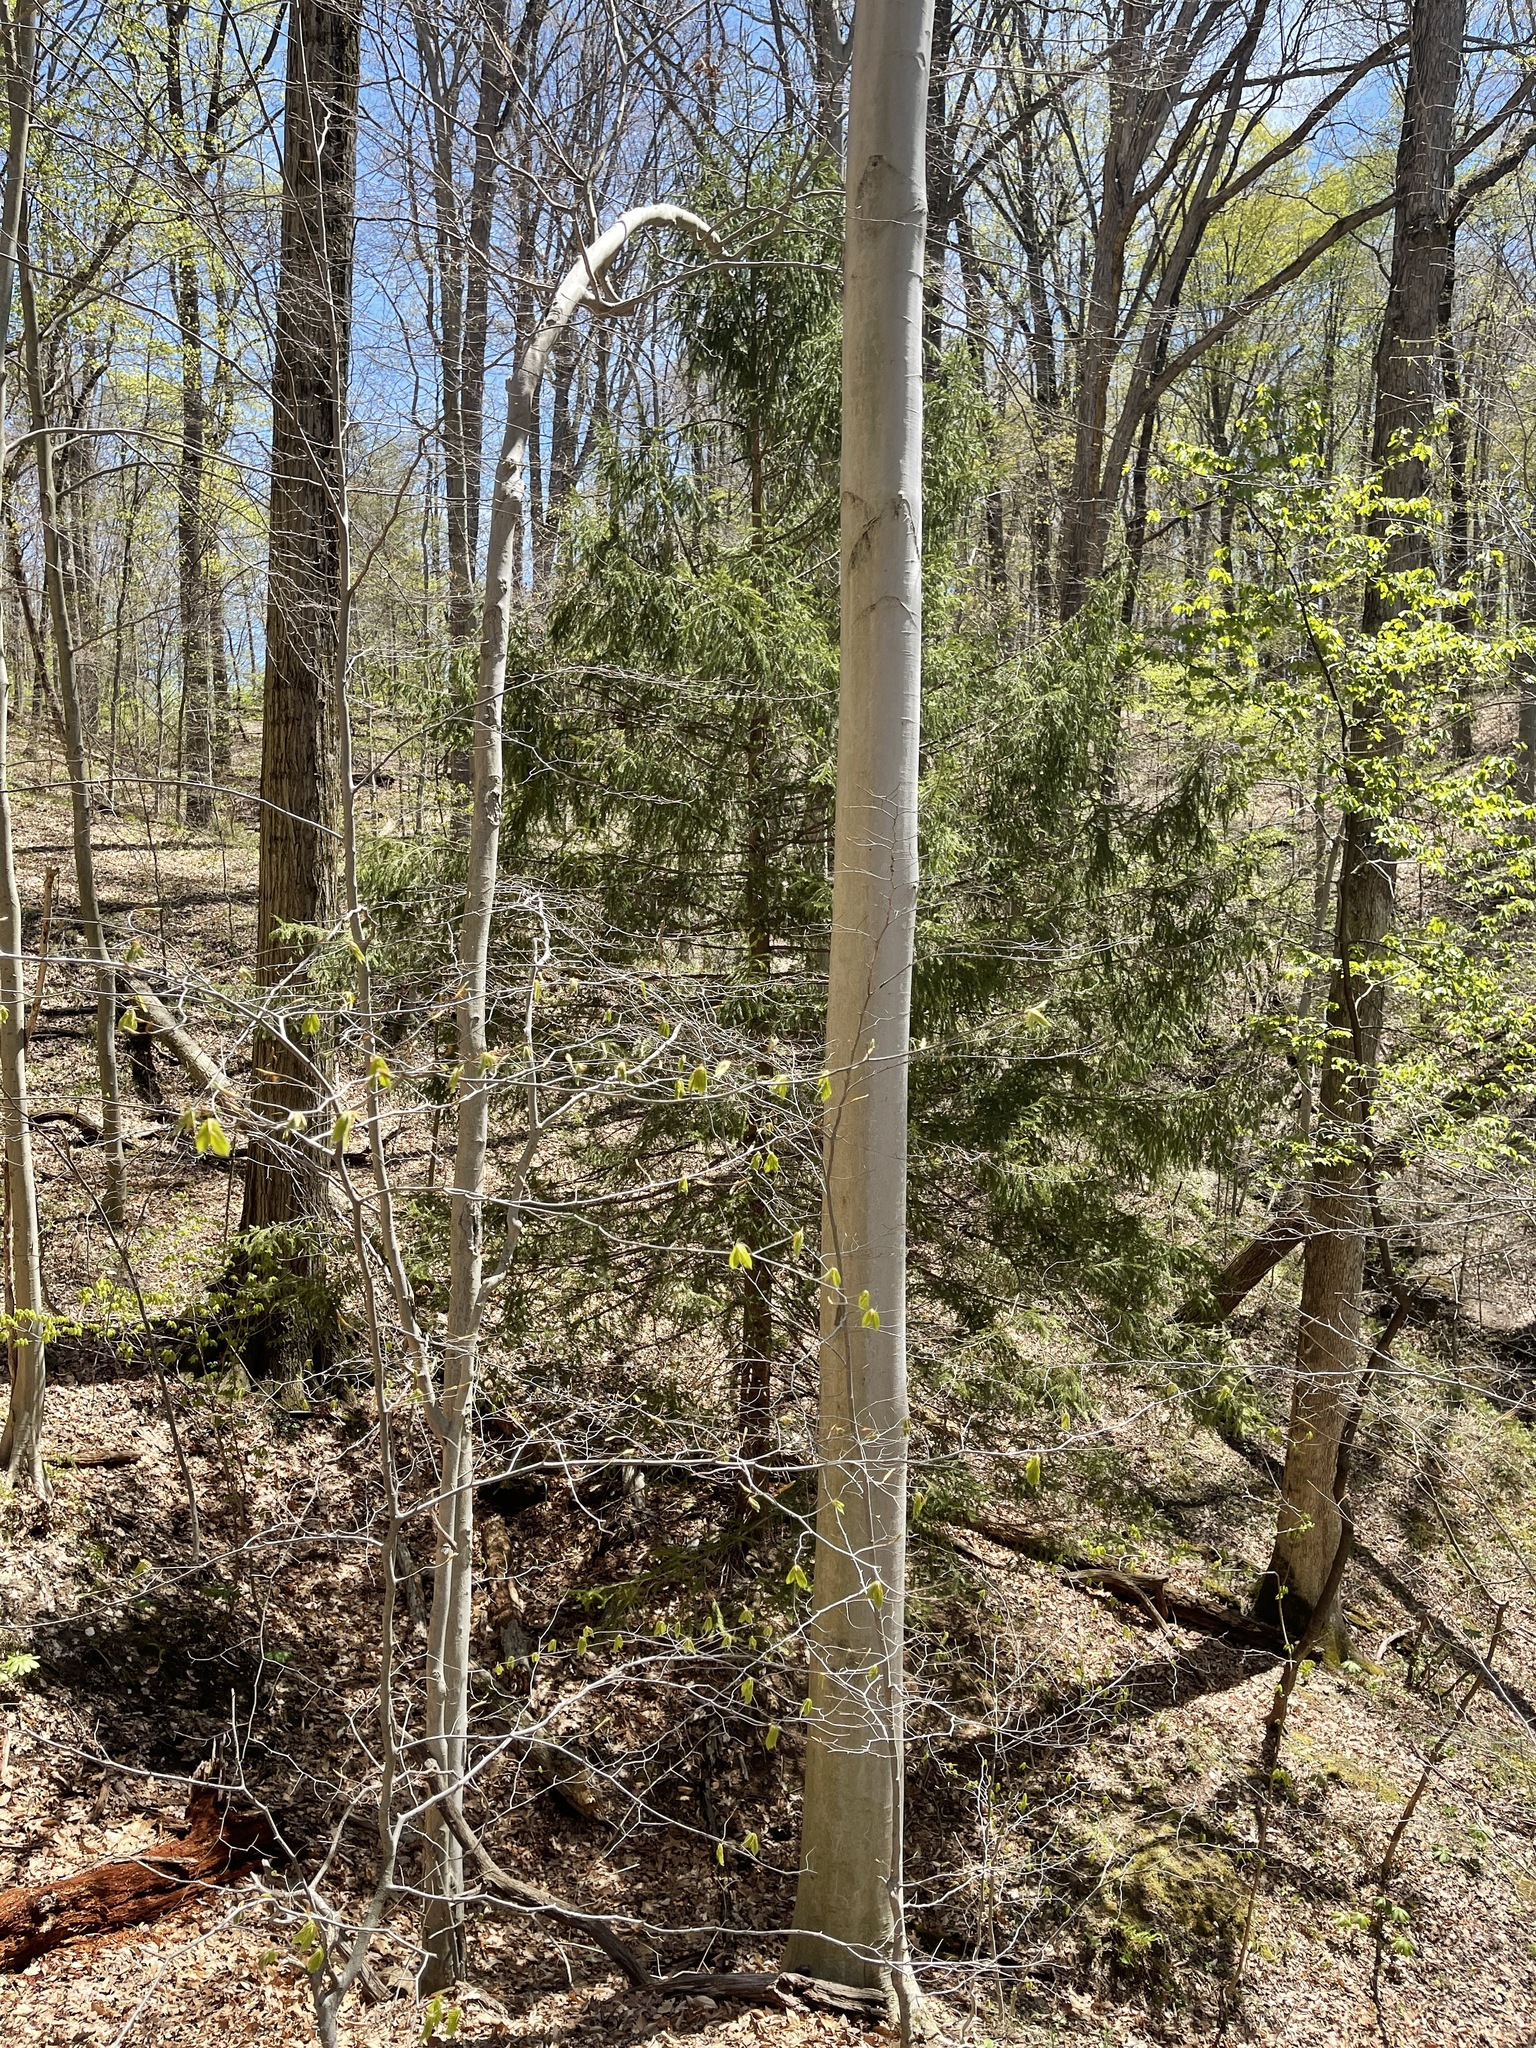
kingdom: Plantae
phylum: Tracheophyta
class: Pinopsida
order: Pinales
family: Pinaceae
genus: Picea
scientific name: Picea abies
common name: Norway spruce
